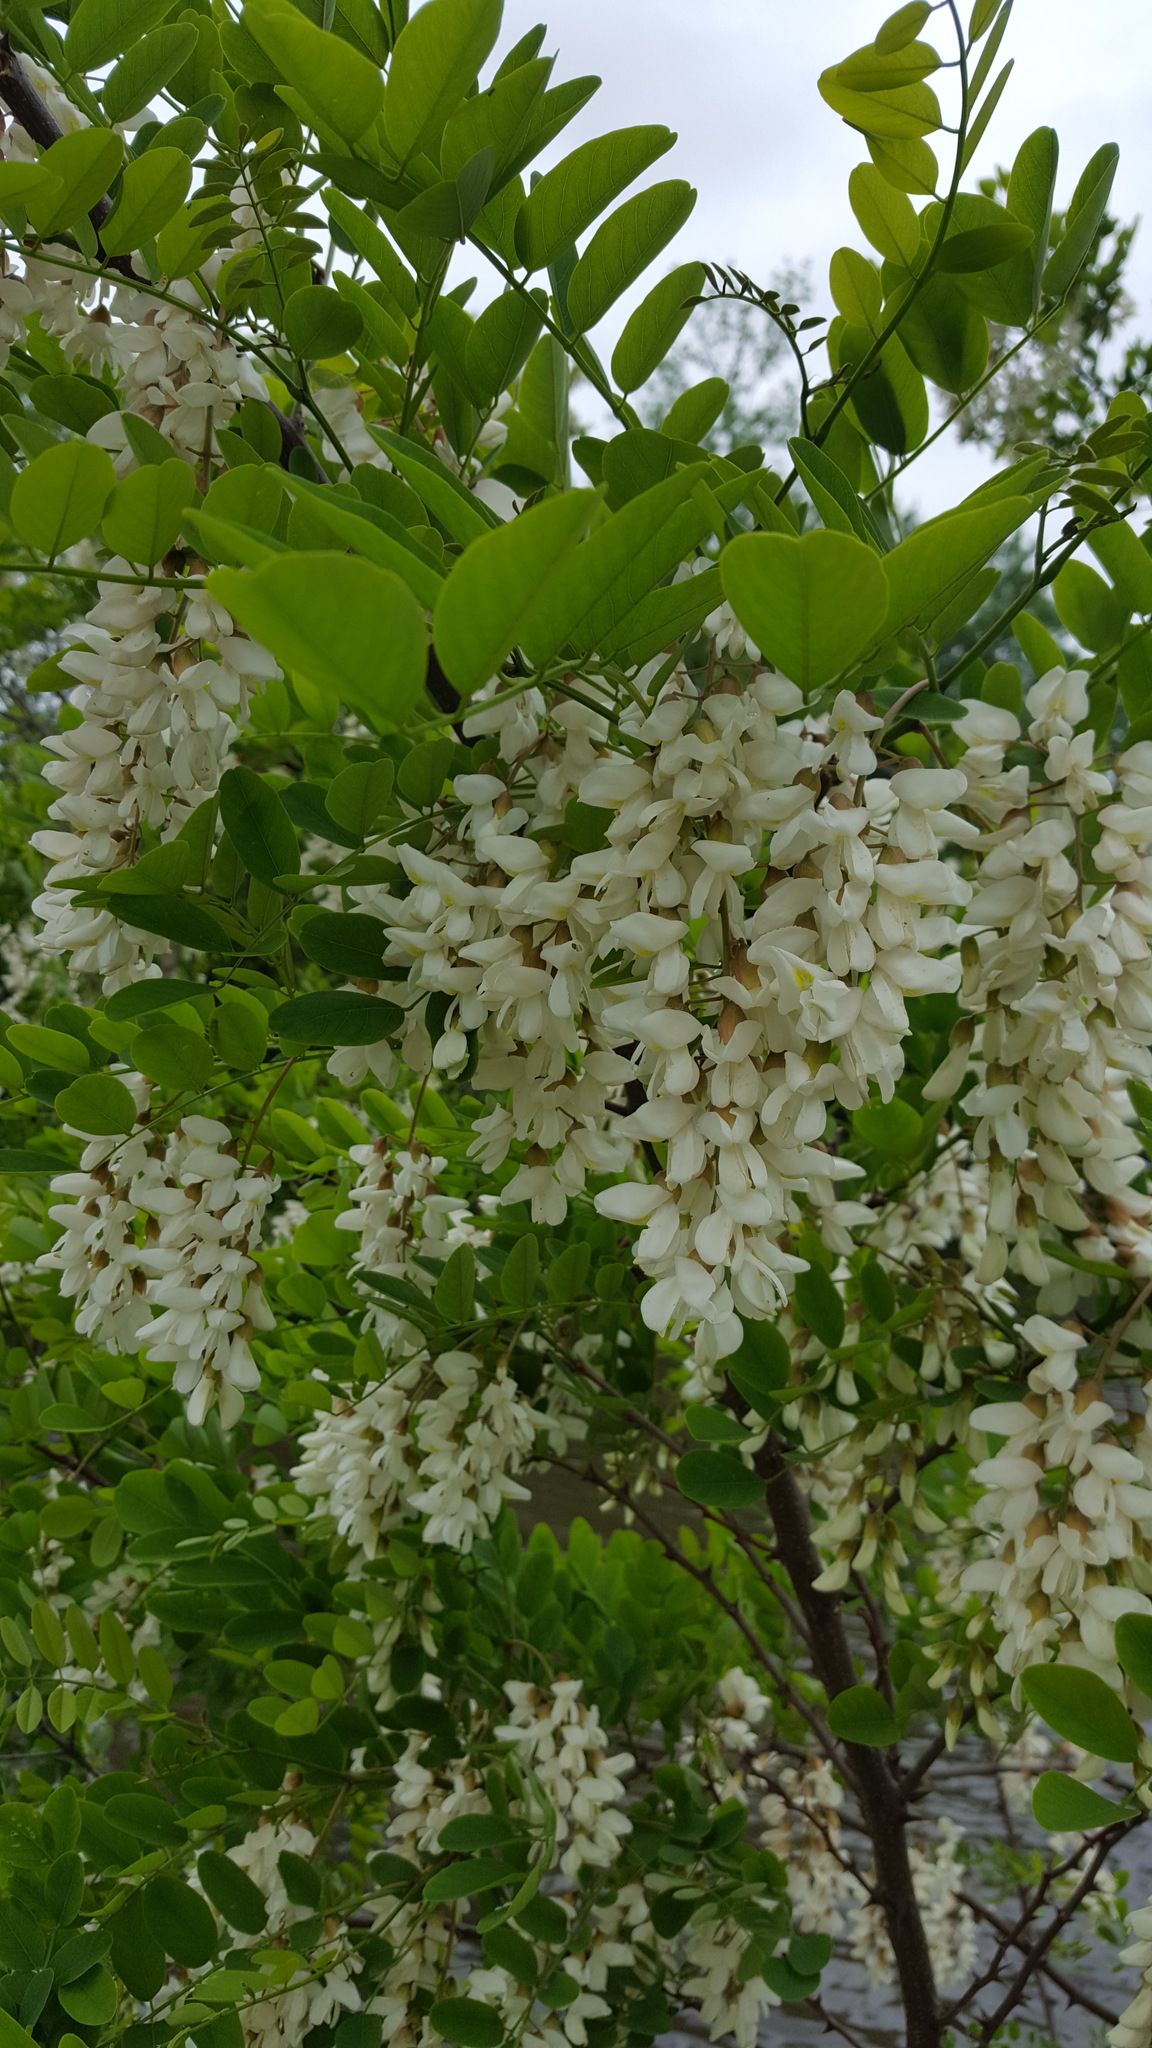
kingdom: Plantae
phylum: Tracheophyta
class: Magnoliopsida
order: Fabales
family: Fabaceae
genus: Robinia
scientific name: Robinia pseudoacacia
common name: Black locust
